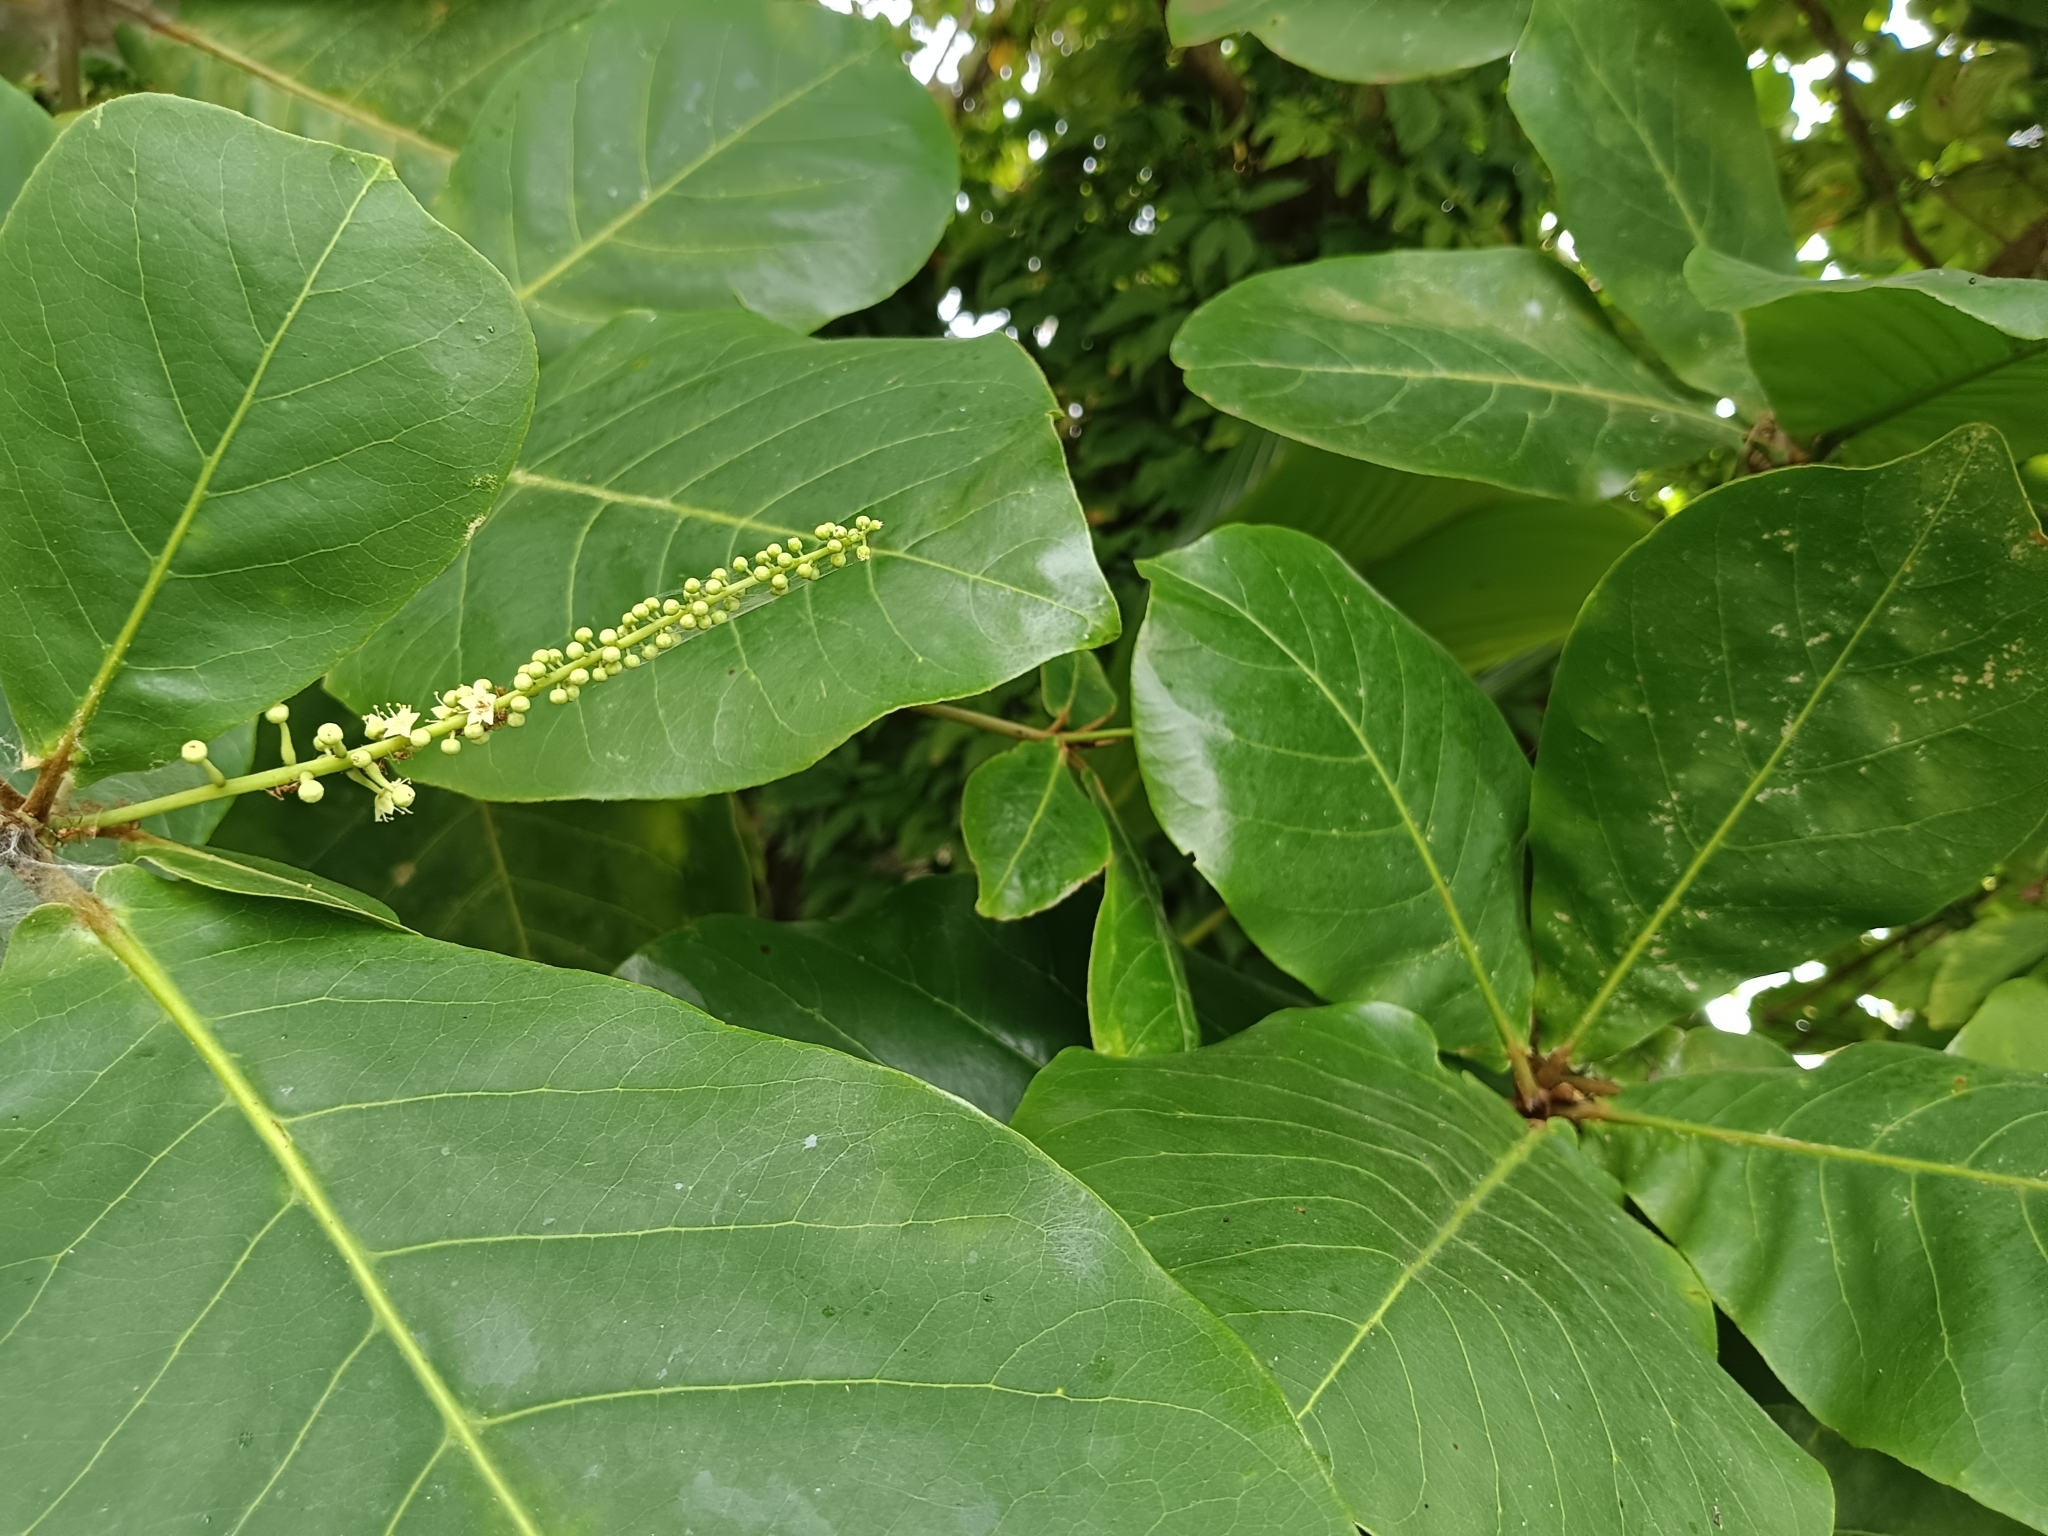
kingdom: Plantae
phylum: Tracheophyta
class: Magnoliopsida
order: Myrtales
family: Combretaceae
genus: Terminalia
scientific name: Terminalia catappa
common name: Tropical almond
